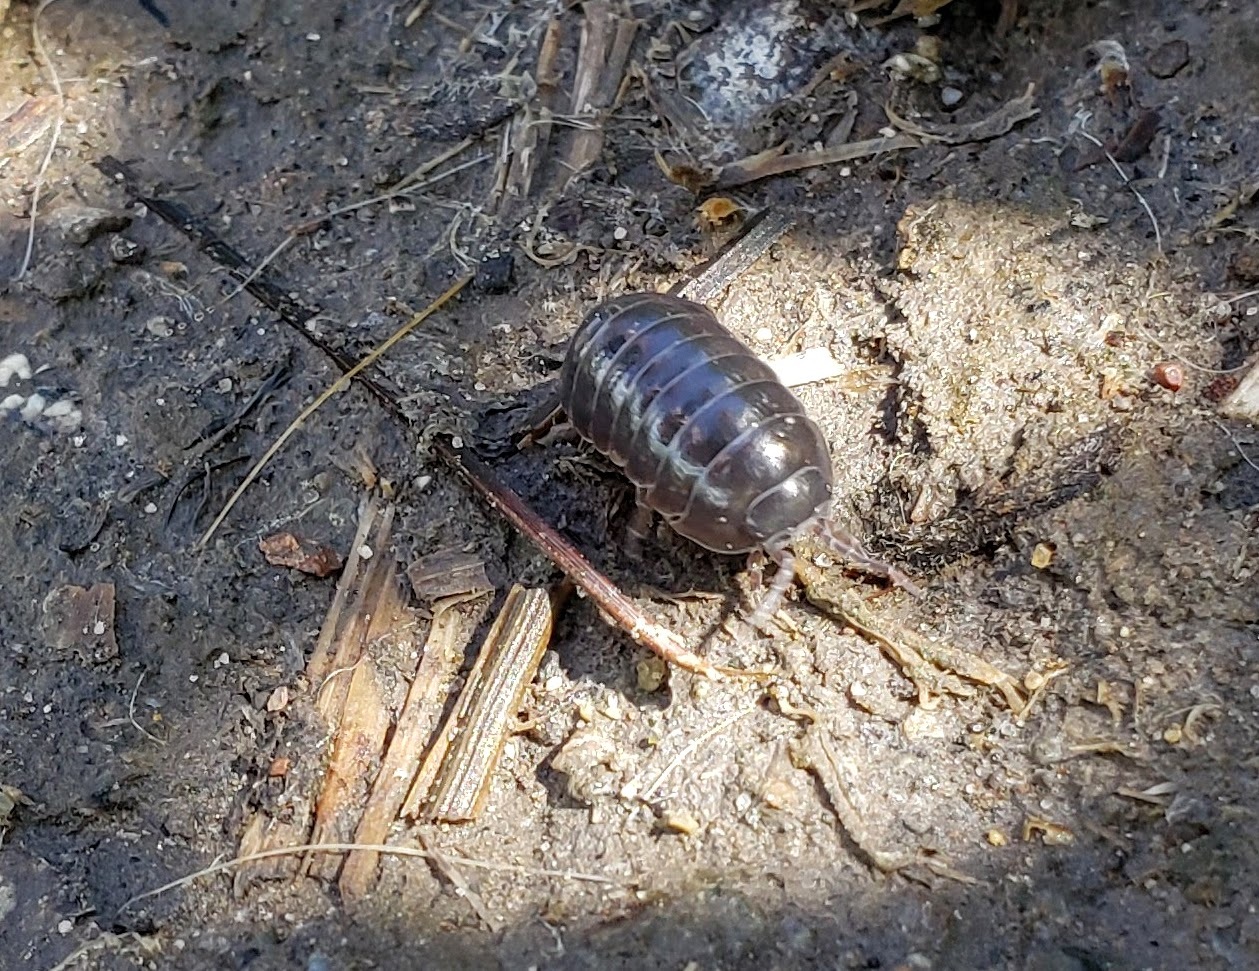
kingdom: Animalia
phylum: Arthropoda
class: Malacostraca
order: Isopoda
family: Armadillidiidae
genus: Armadillidium
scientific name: Armadillidium vulgare
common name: Common pill woodlouse
